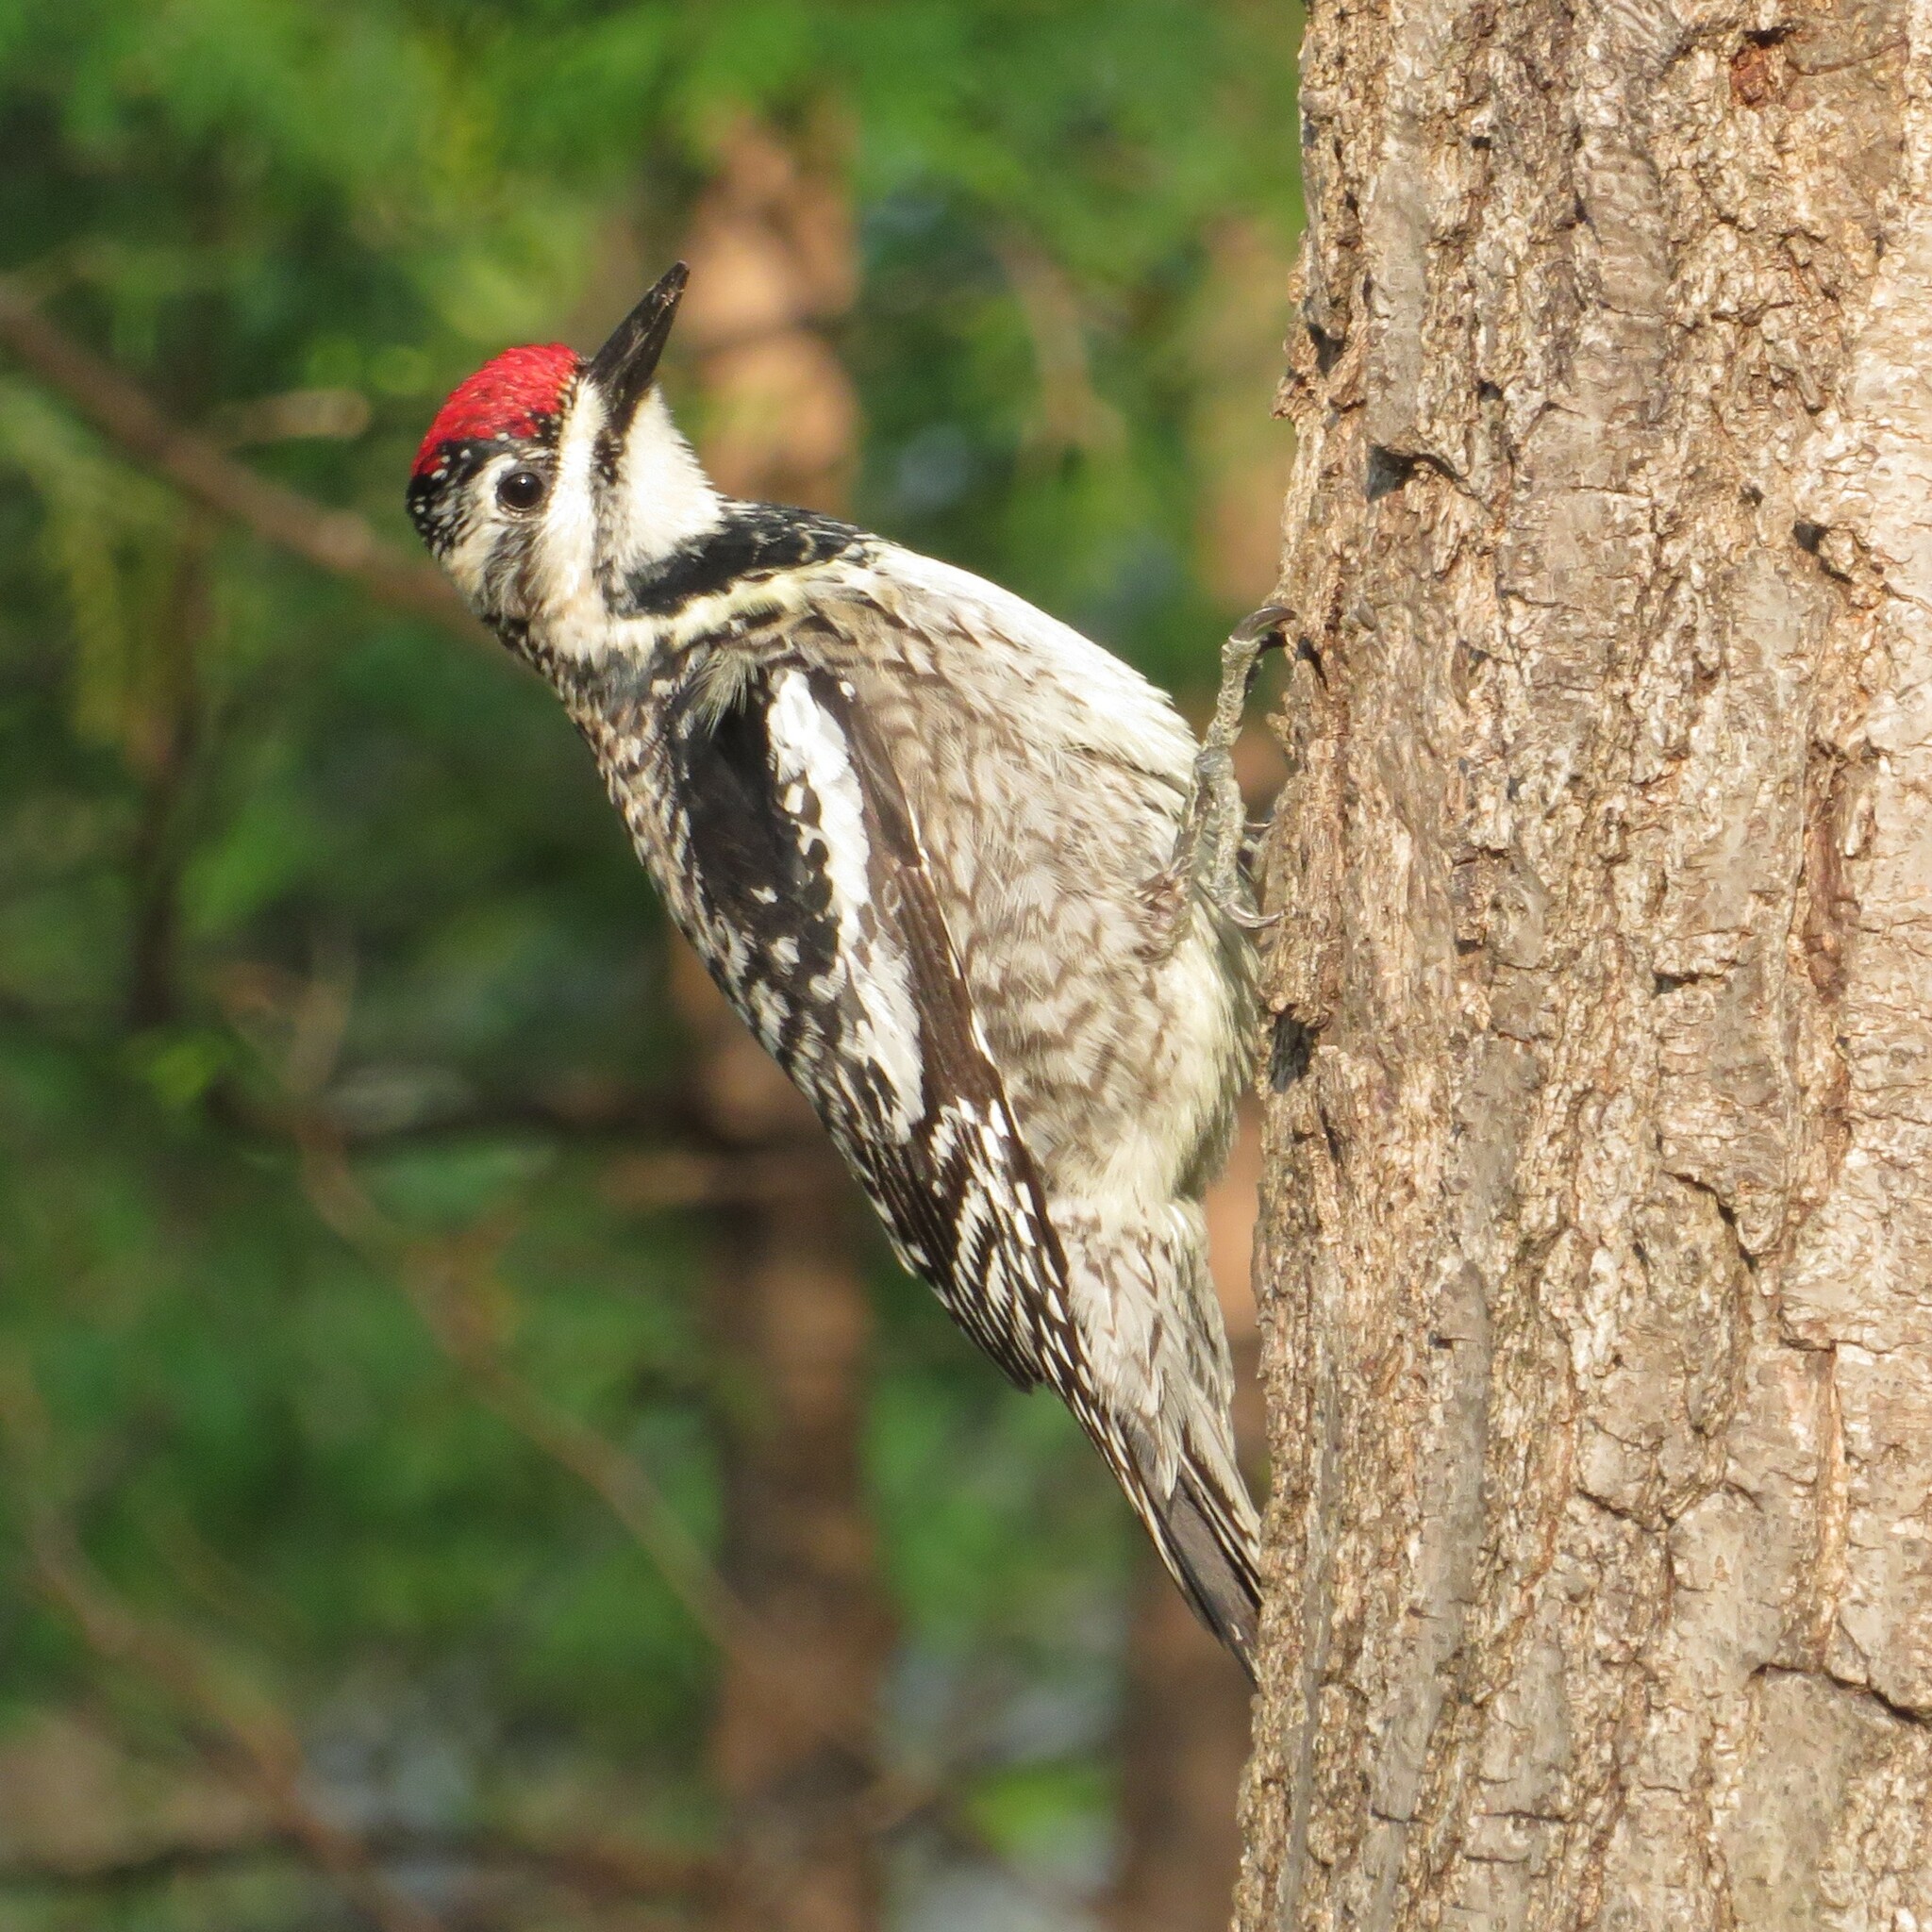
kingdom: Animalia
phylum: Chordata
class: Aves
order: Piciformes
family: Picidae
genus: Sphyrapicus
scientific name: Sphyrapicus varius
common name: Yellow-bellied sapsucker
